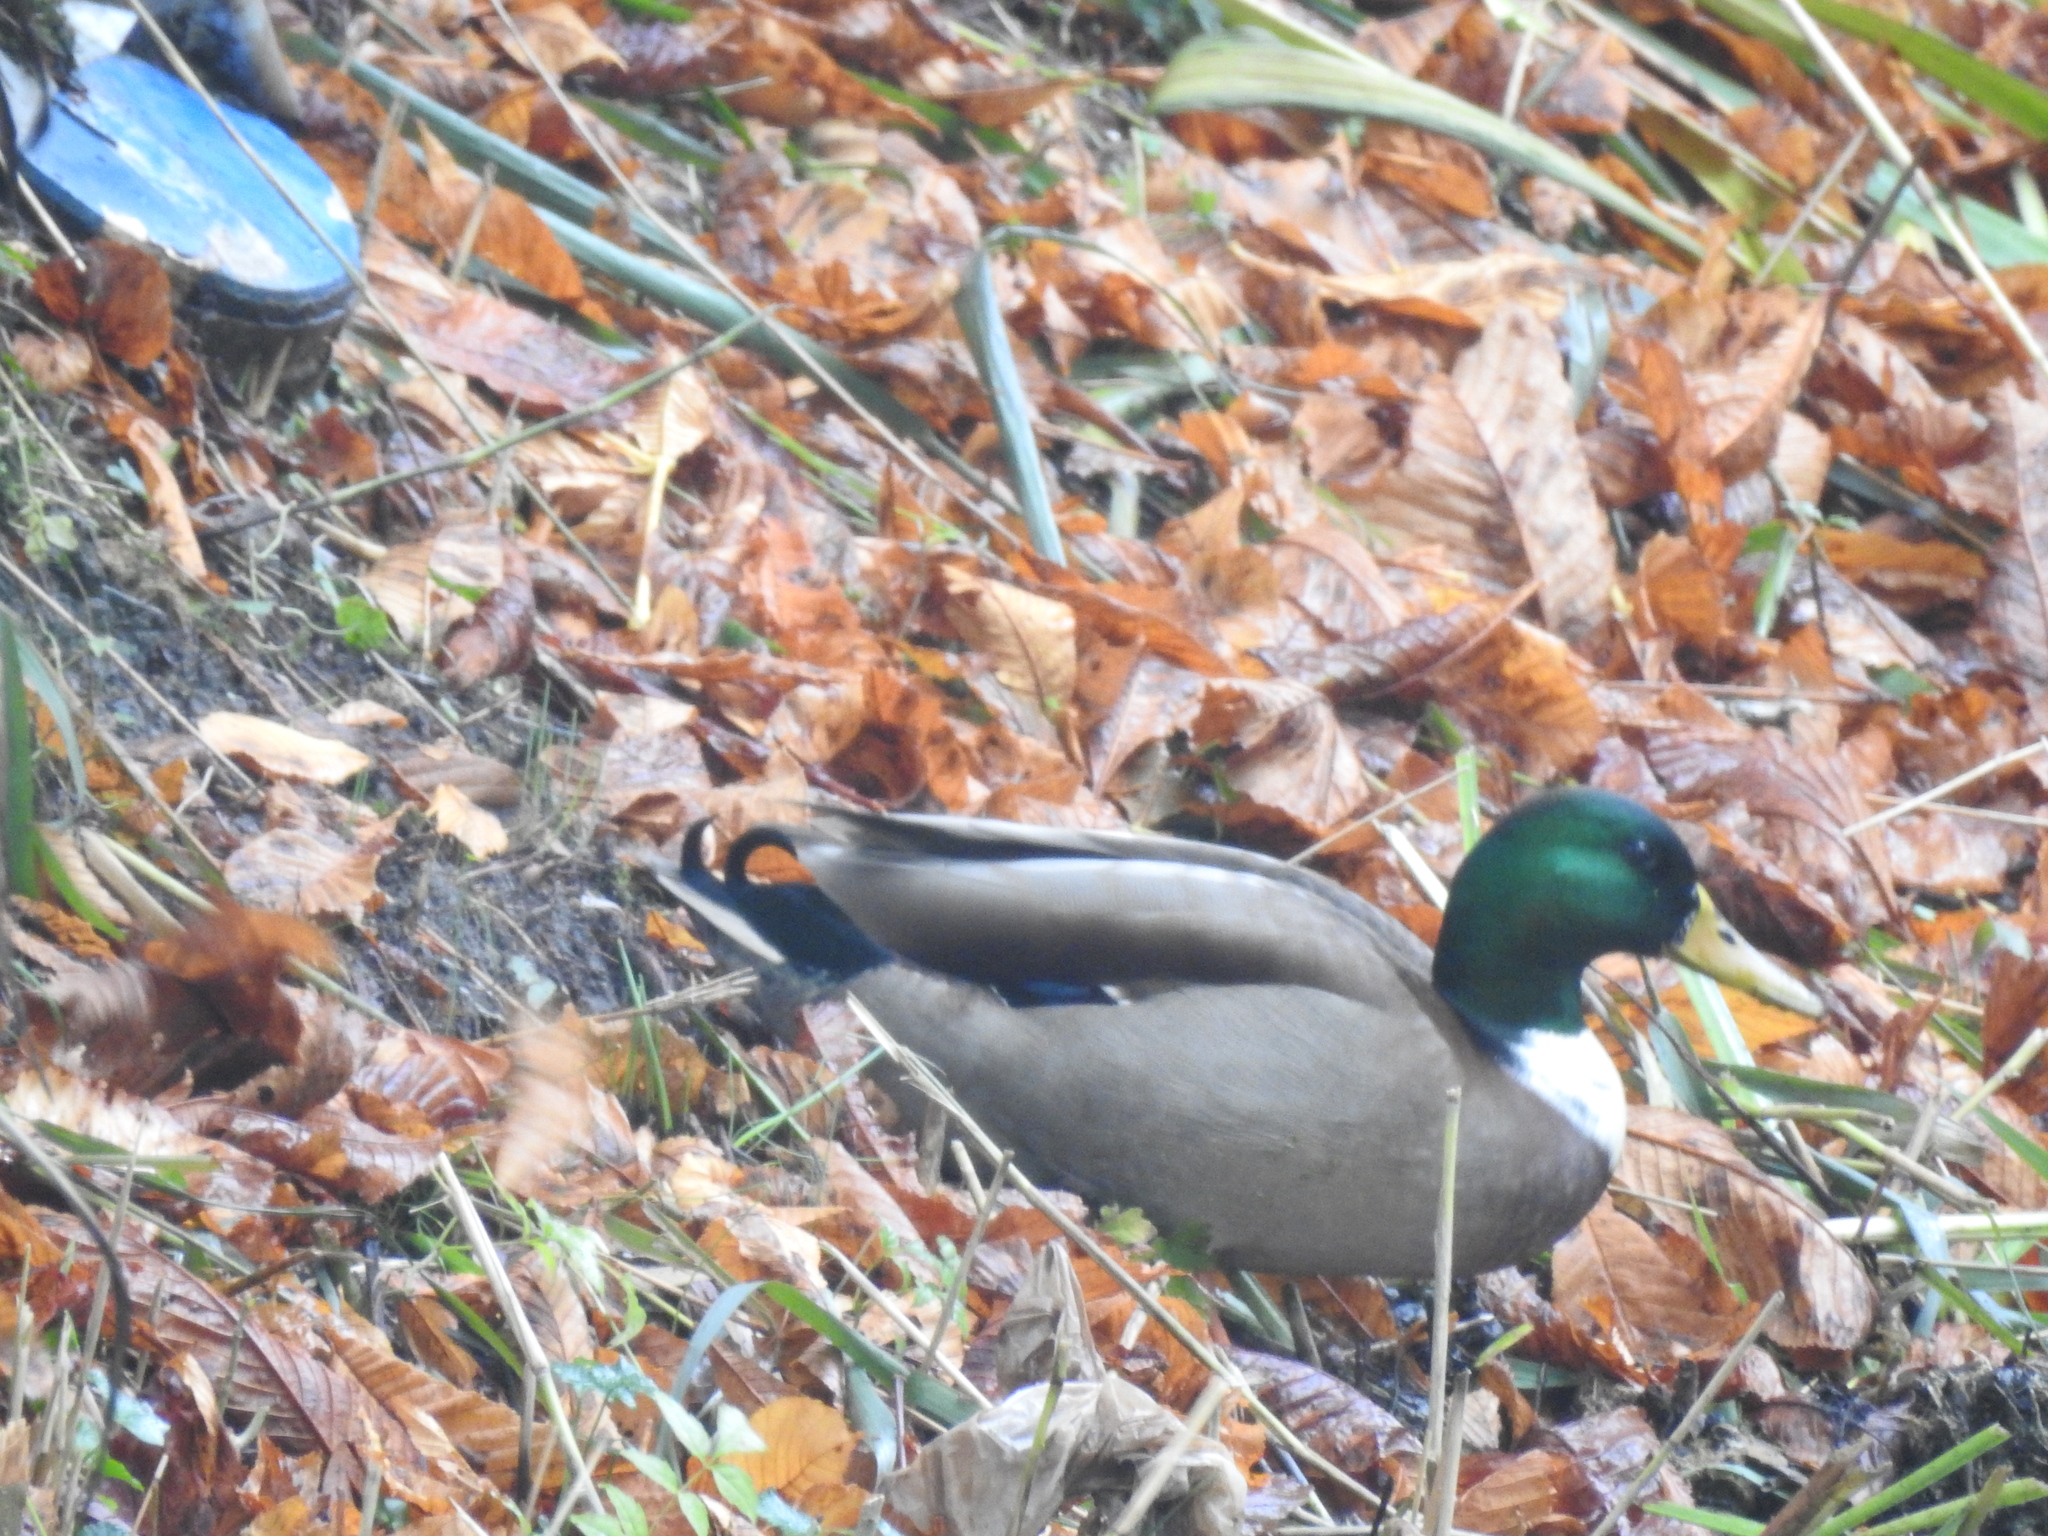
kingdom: Animalia
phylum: Chordata
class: Aves
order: Anseriformes
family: Anatidae
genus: Anas
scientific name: Anas platyrhynchos
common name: Mallard
